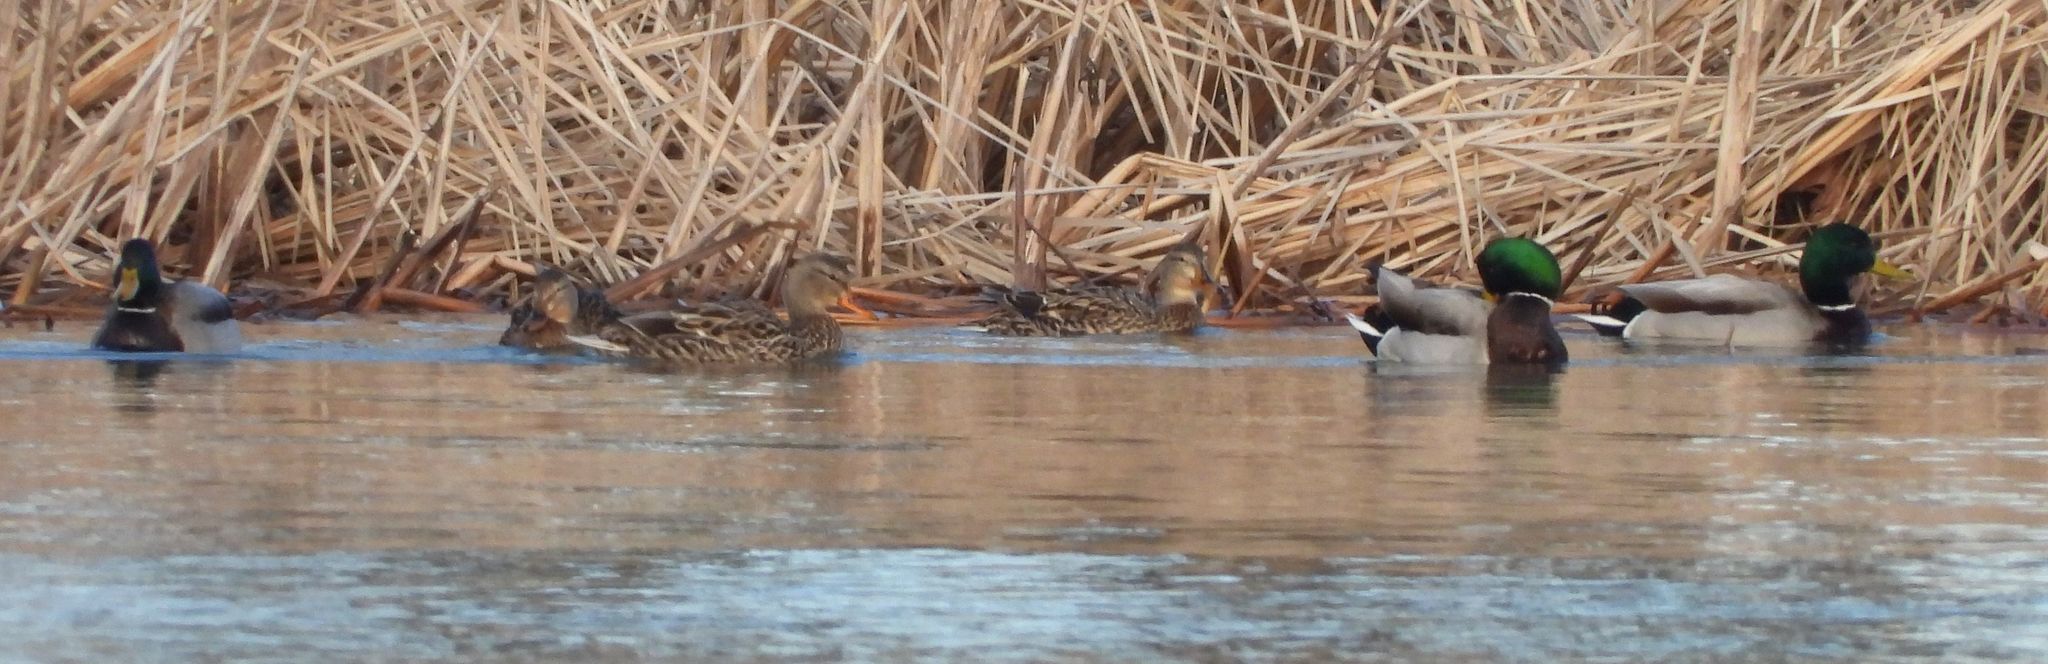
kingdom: Animalia
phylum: Chordata
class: Aves
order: Anseriformes
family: Anatidae
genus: Anas
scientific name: Anas platyrhynchos
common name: Mallard
